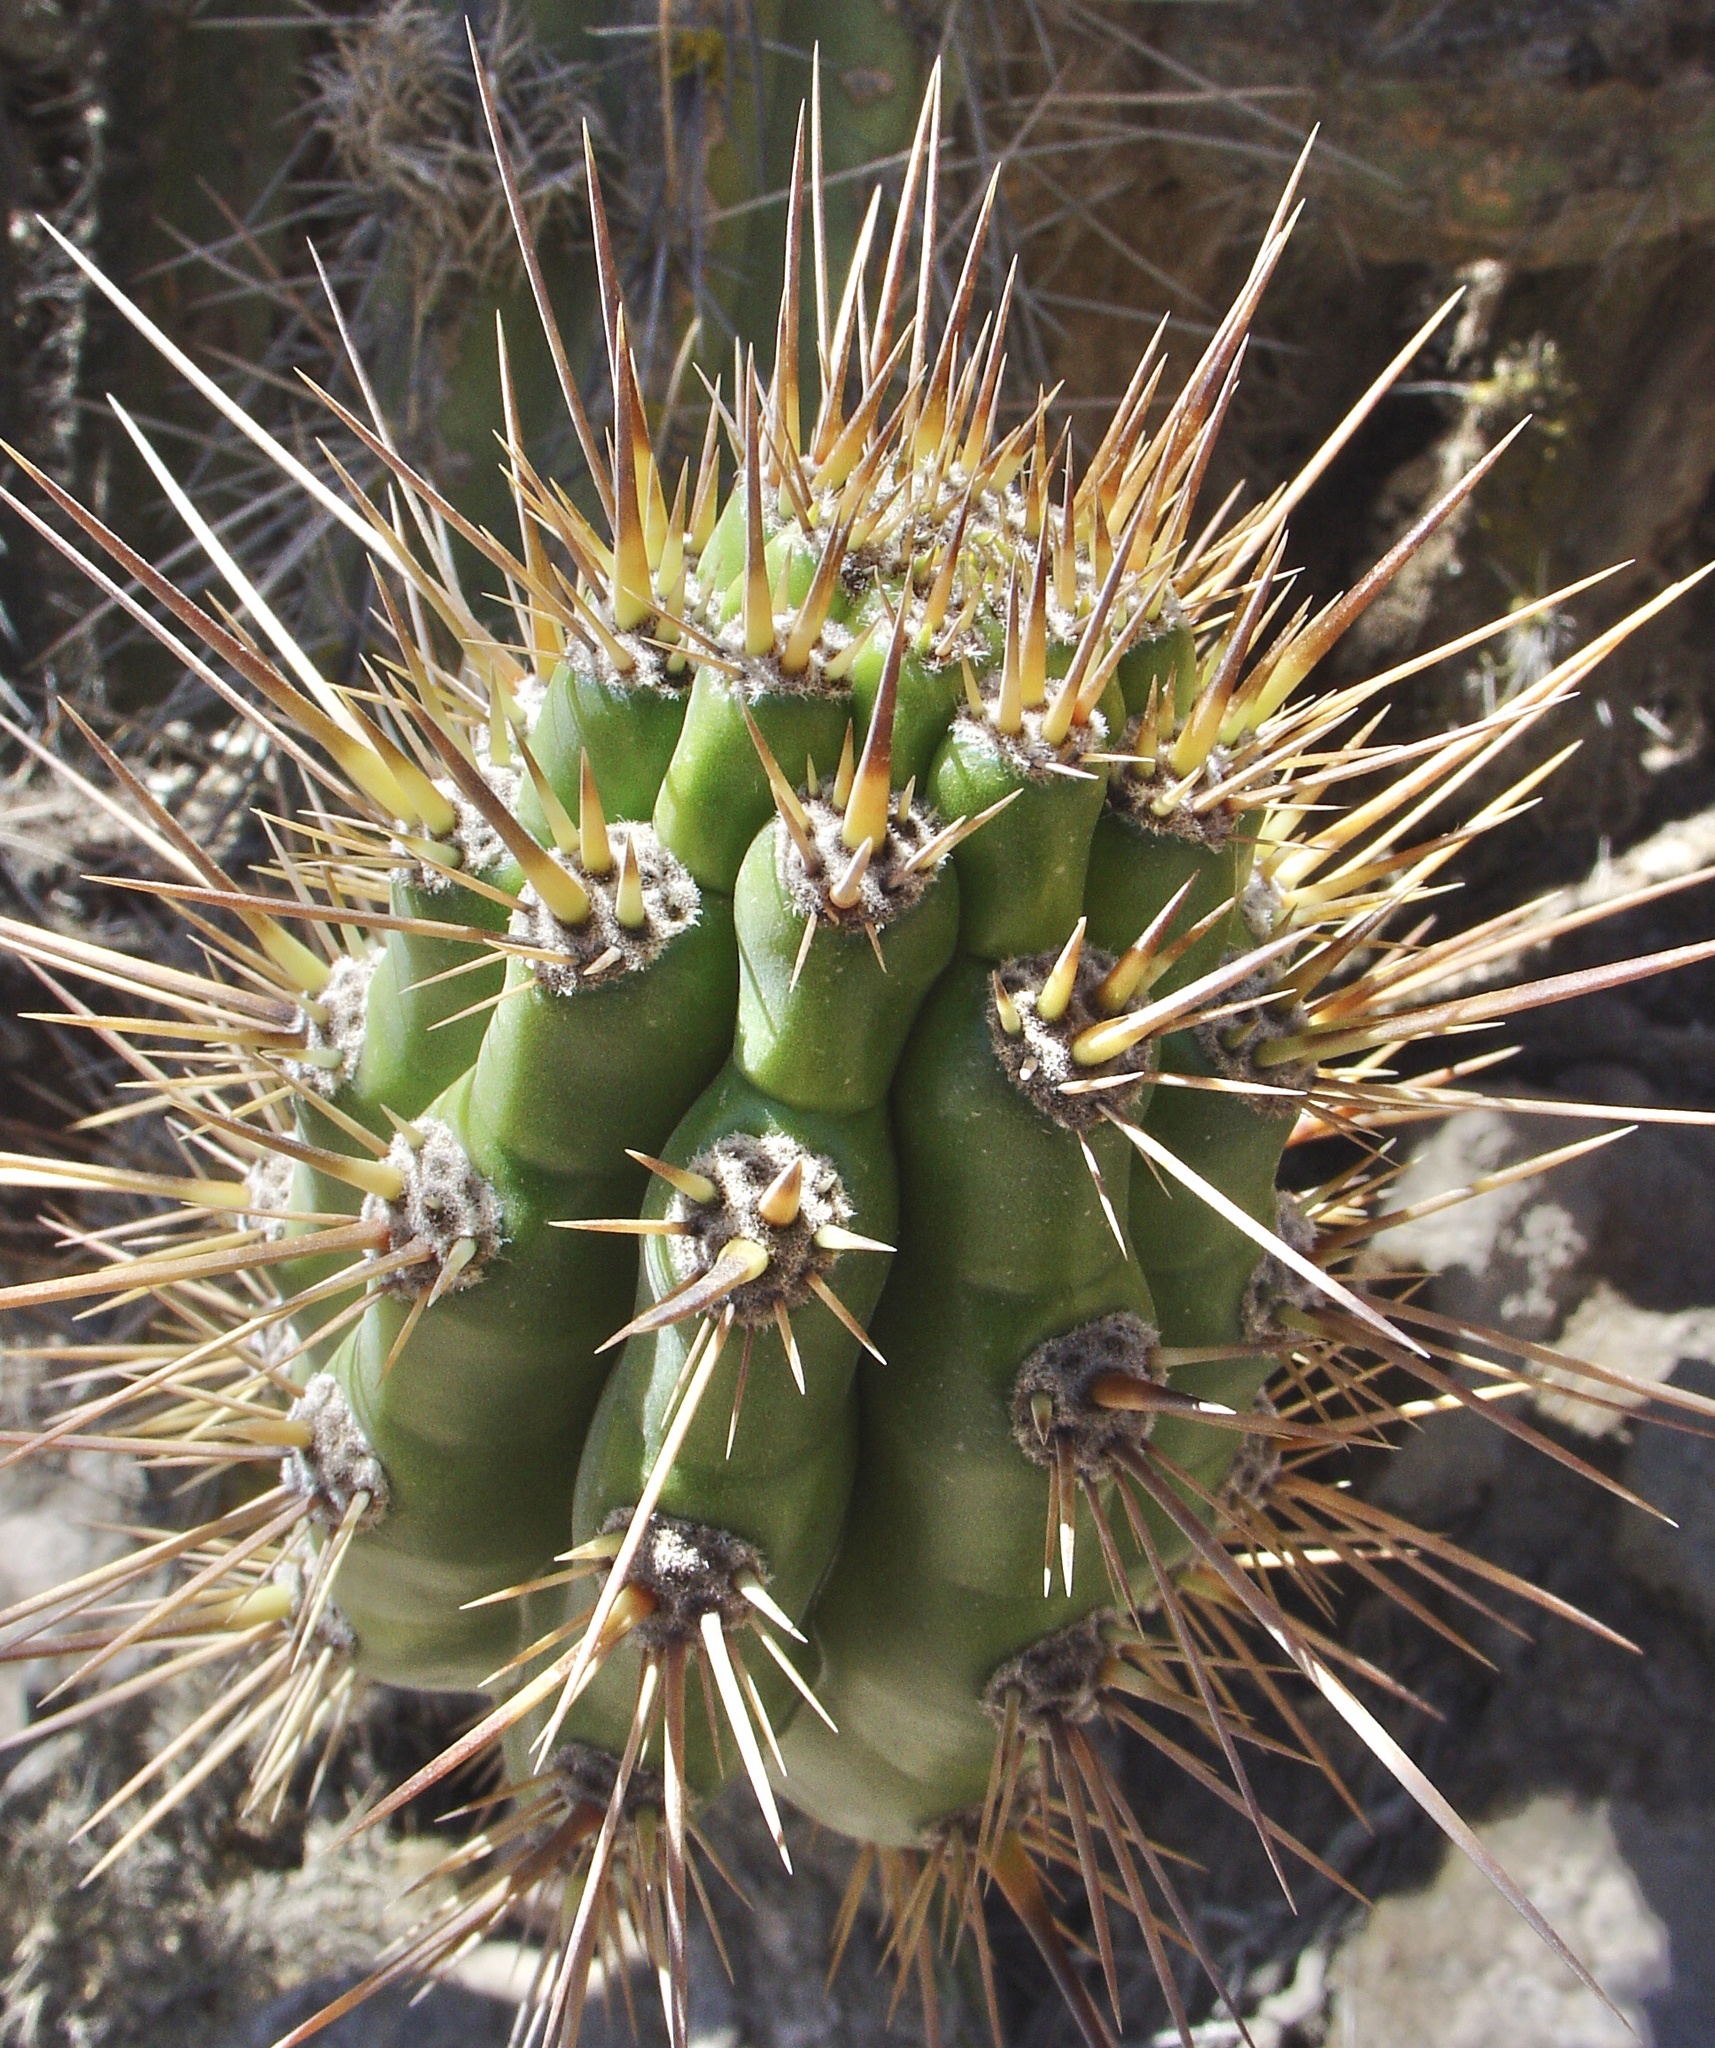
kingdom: Plantae
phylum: Tracheophyta
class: Magnoliopsida
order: Caryophyllales
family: Cactaceae
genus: Corryocactus
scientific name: Corryocactus brevistylus
